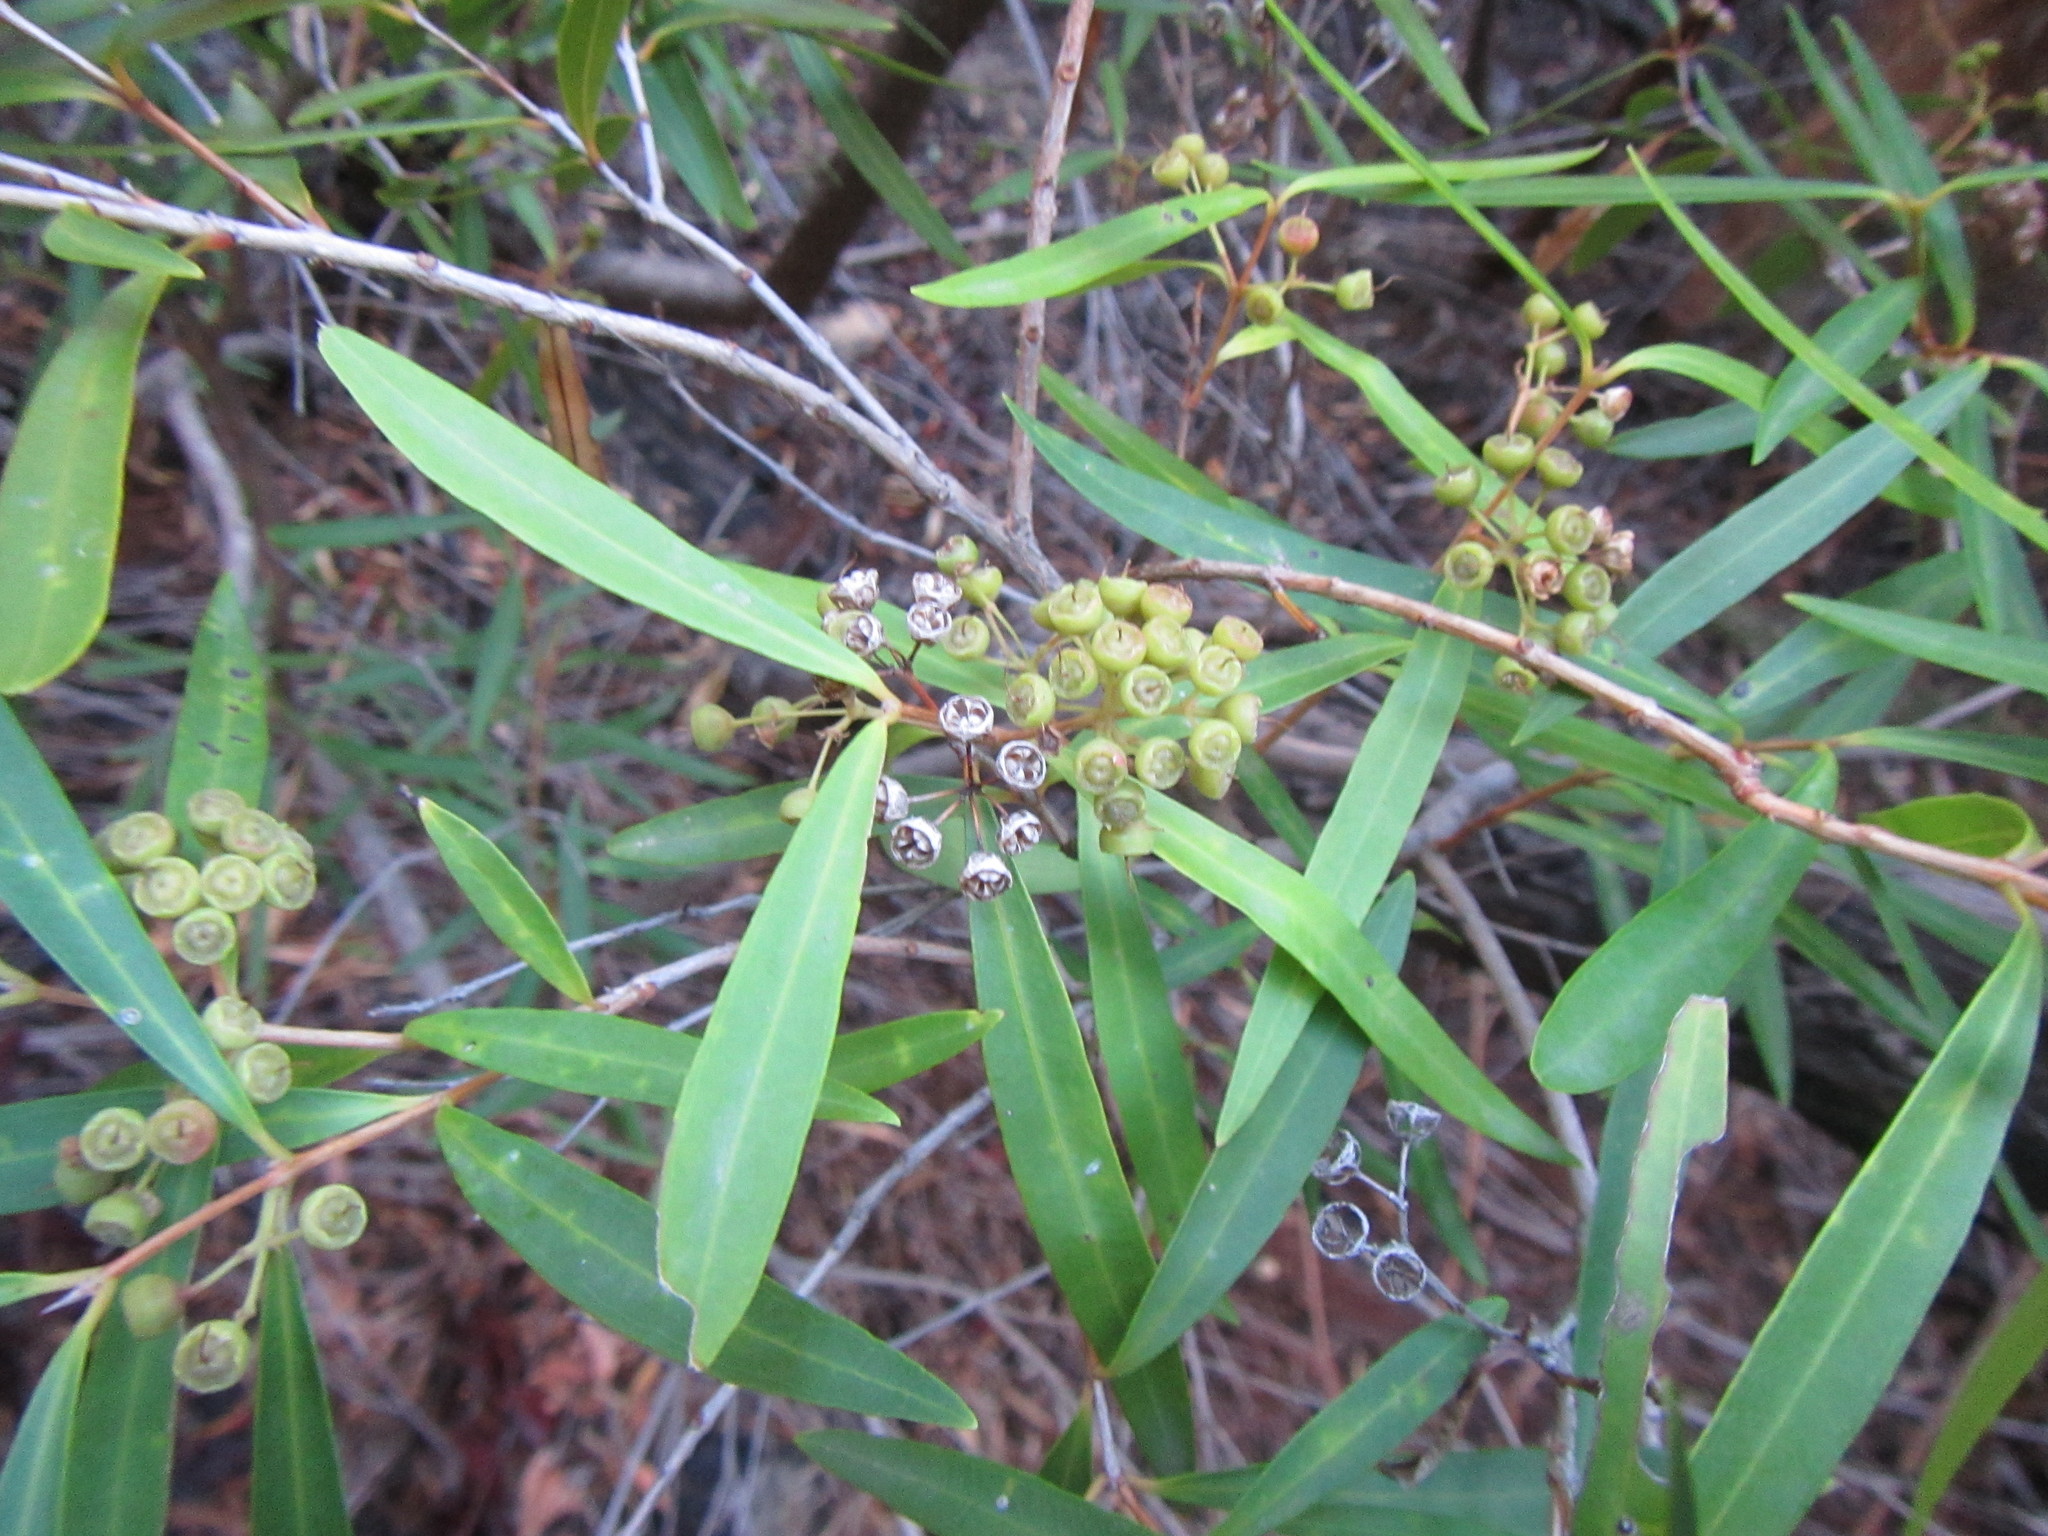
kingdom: Plantae
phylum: Tracheophyta
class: Magnoliopsida
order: Myrtales
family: Myrtaceae
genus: Callistemon
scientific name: Callistemon lanceolatus
